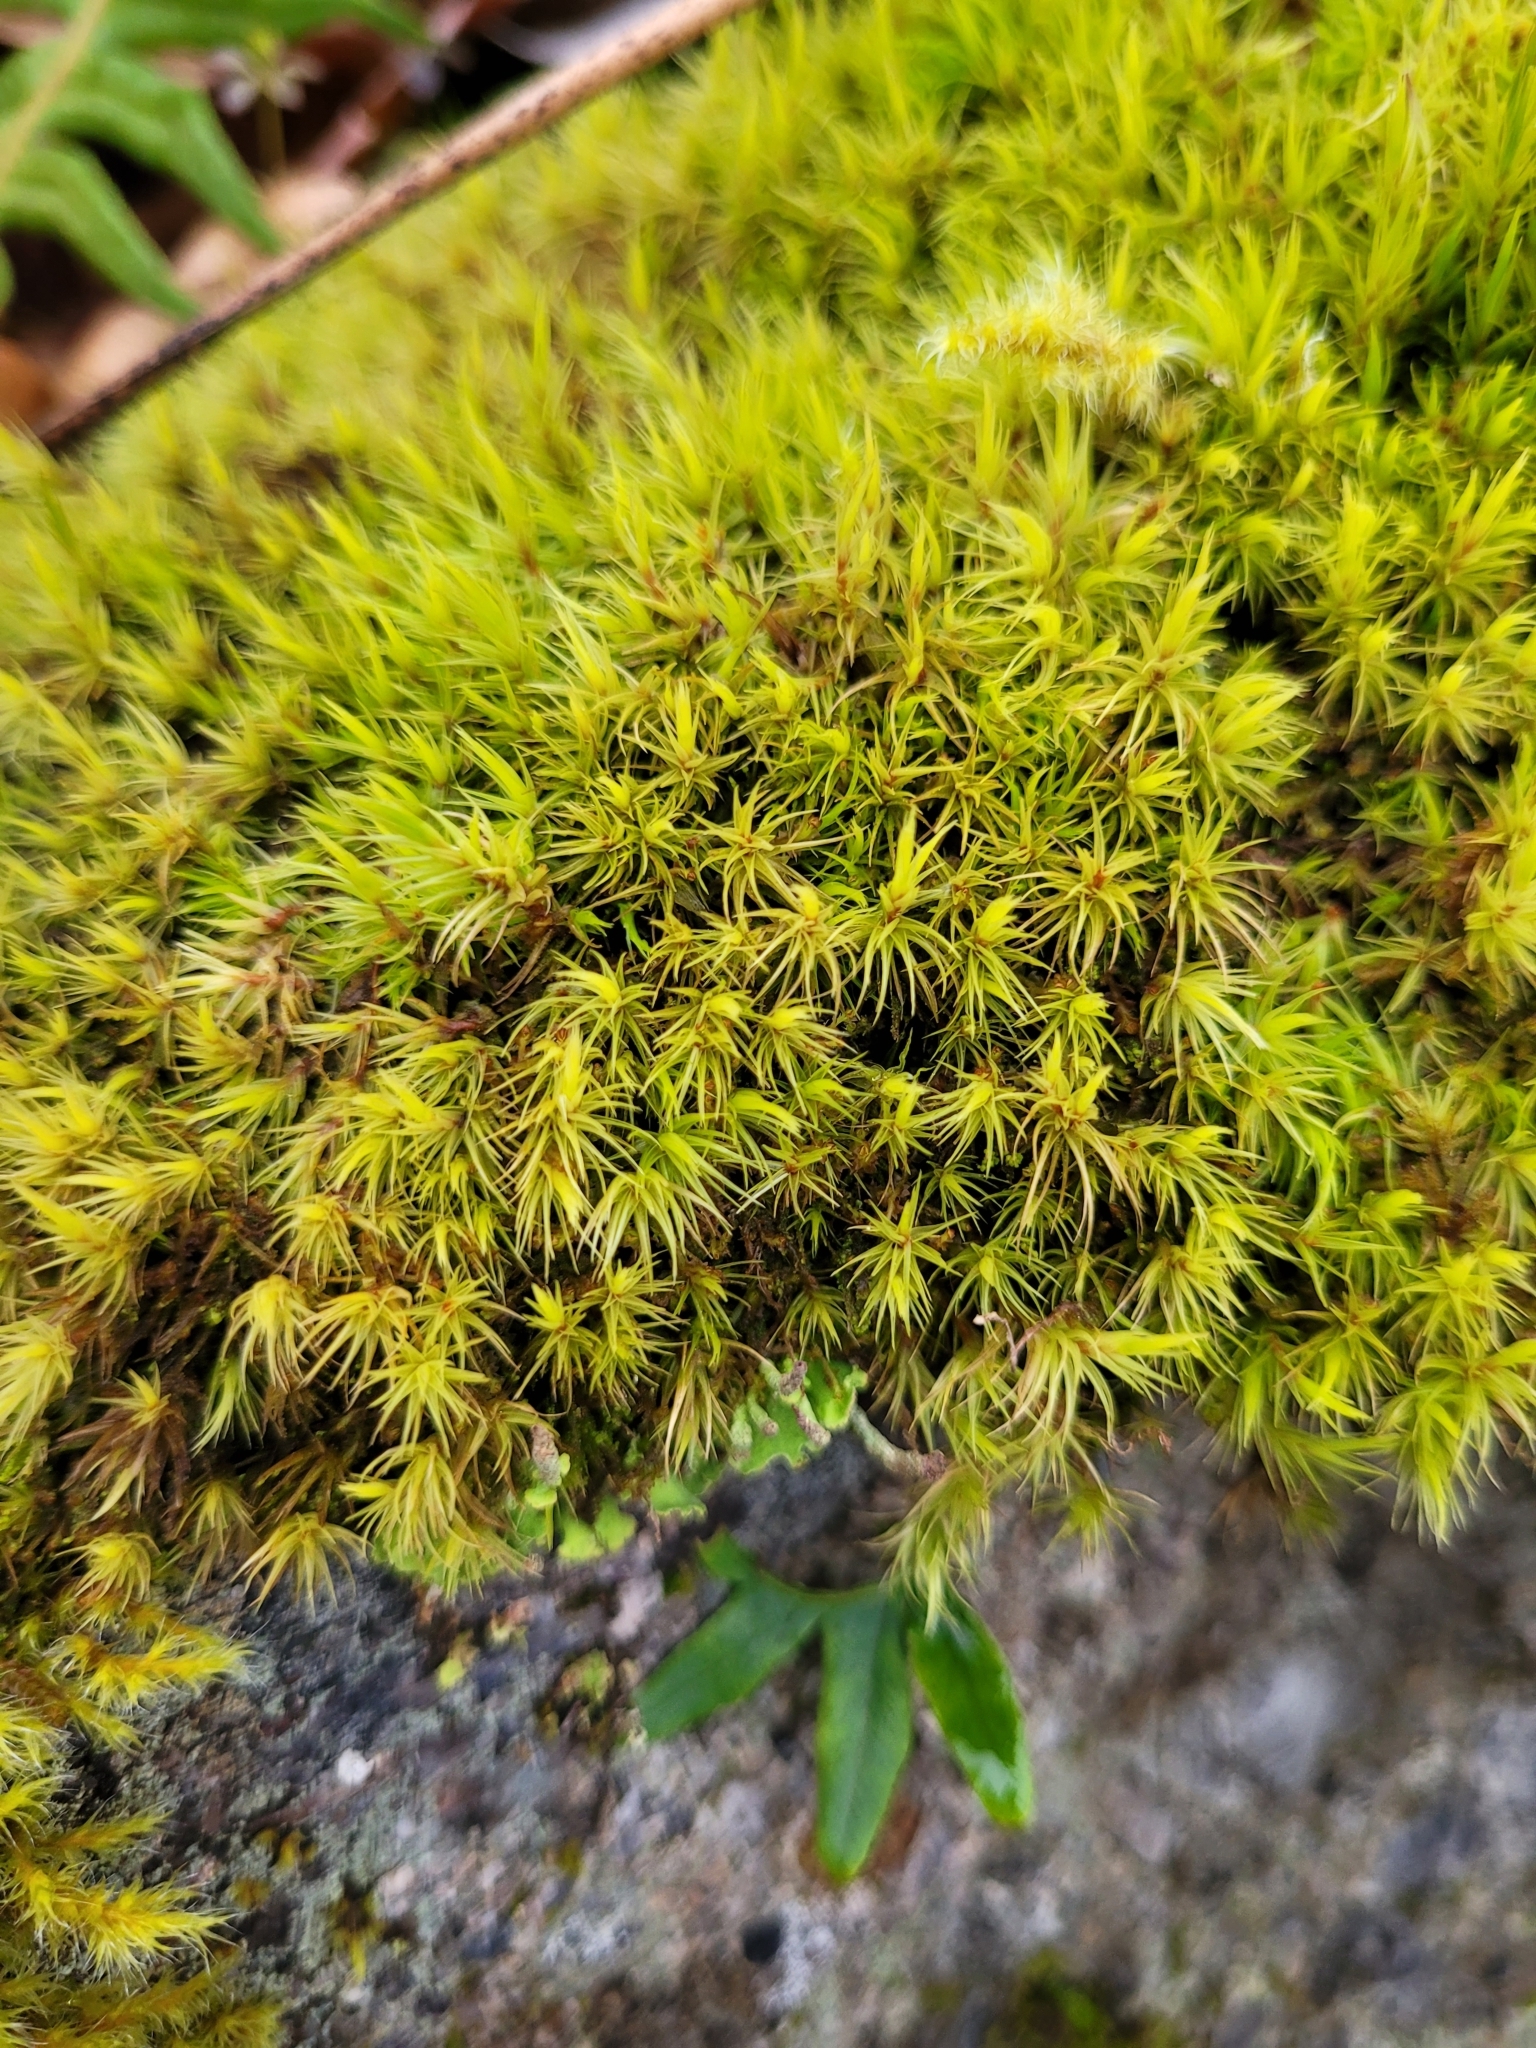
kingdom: Plantae
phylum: Bryophyta
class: Bryopsida
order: Dicranales
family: Dicranaceae
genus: Dicranum
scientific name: Dicranum scoparium
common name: Broom fork-moss
